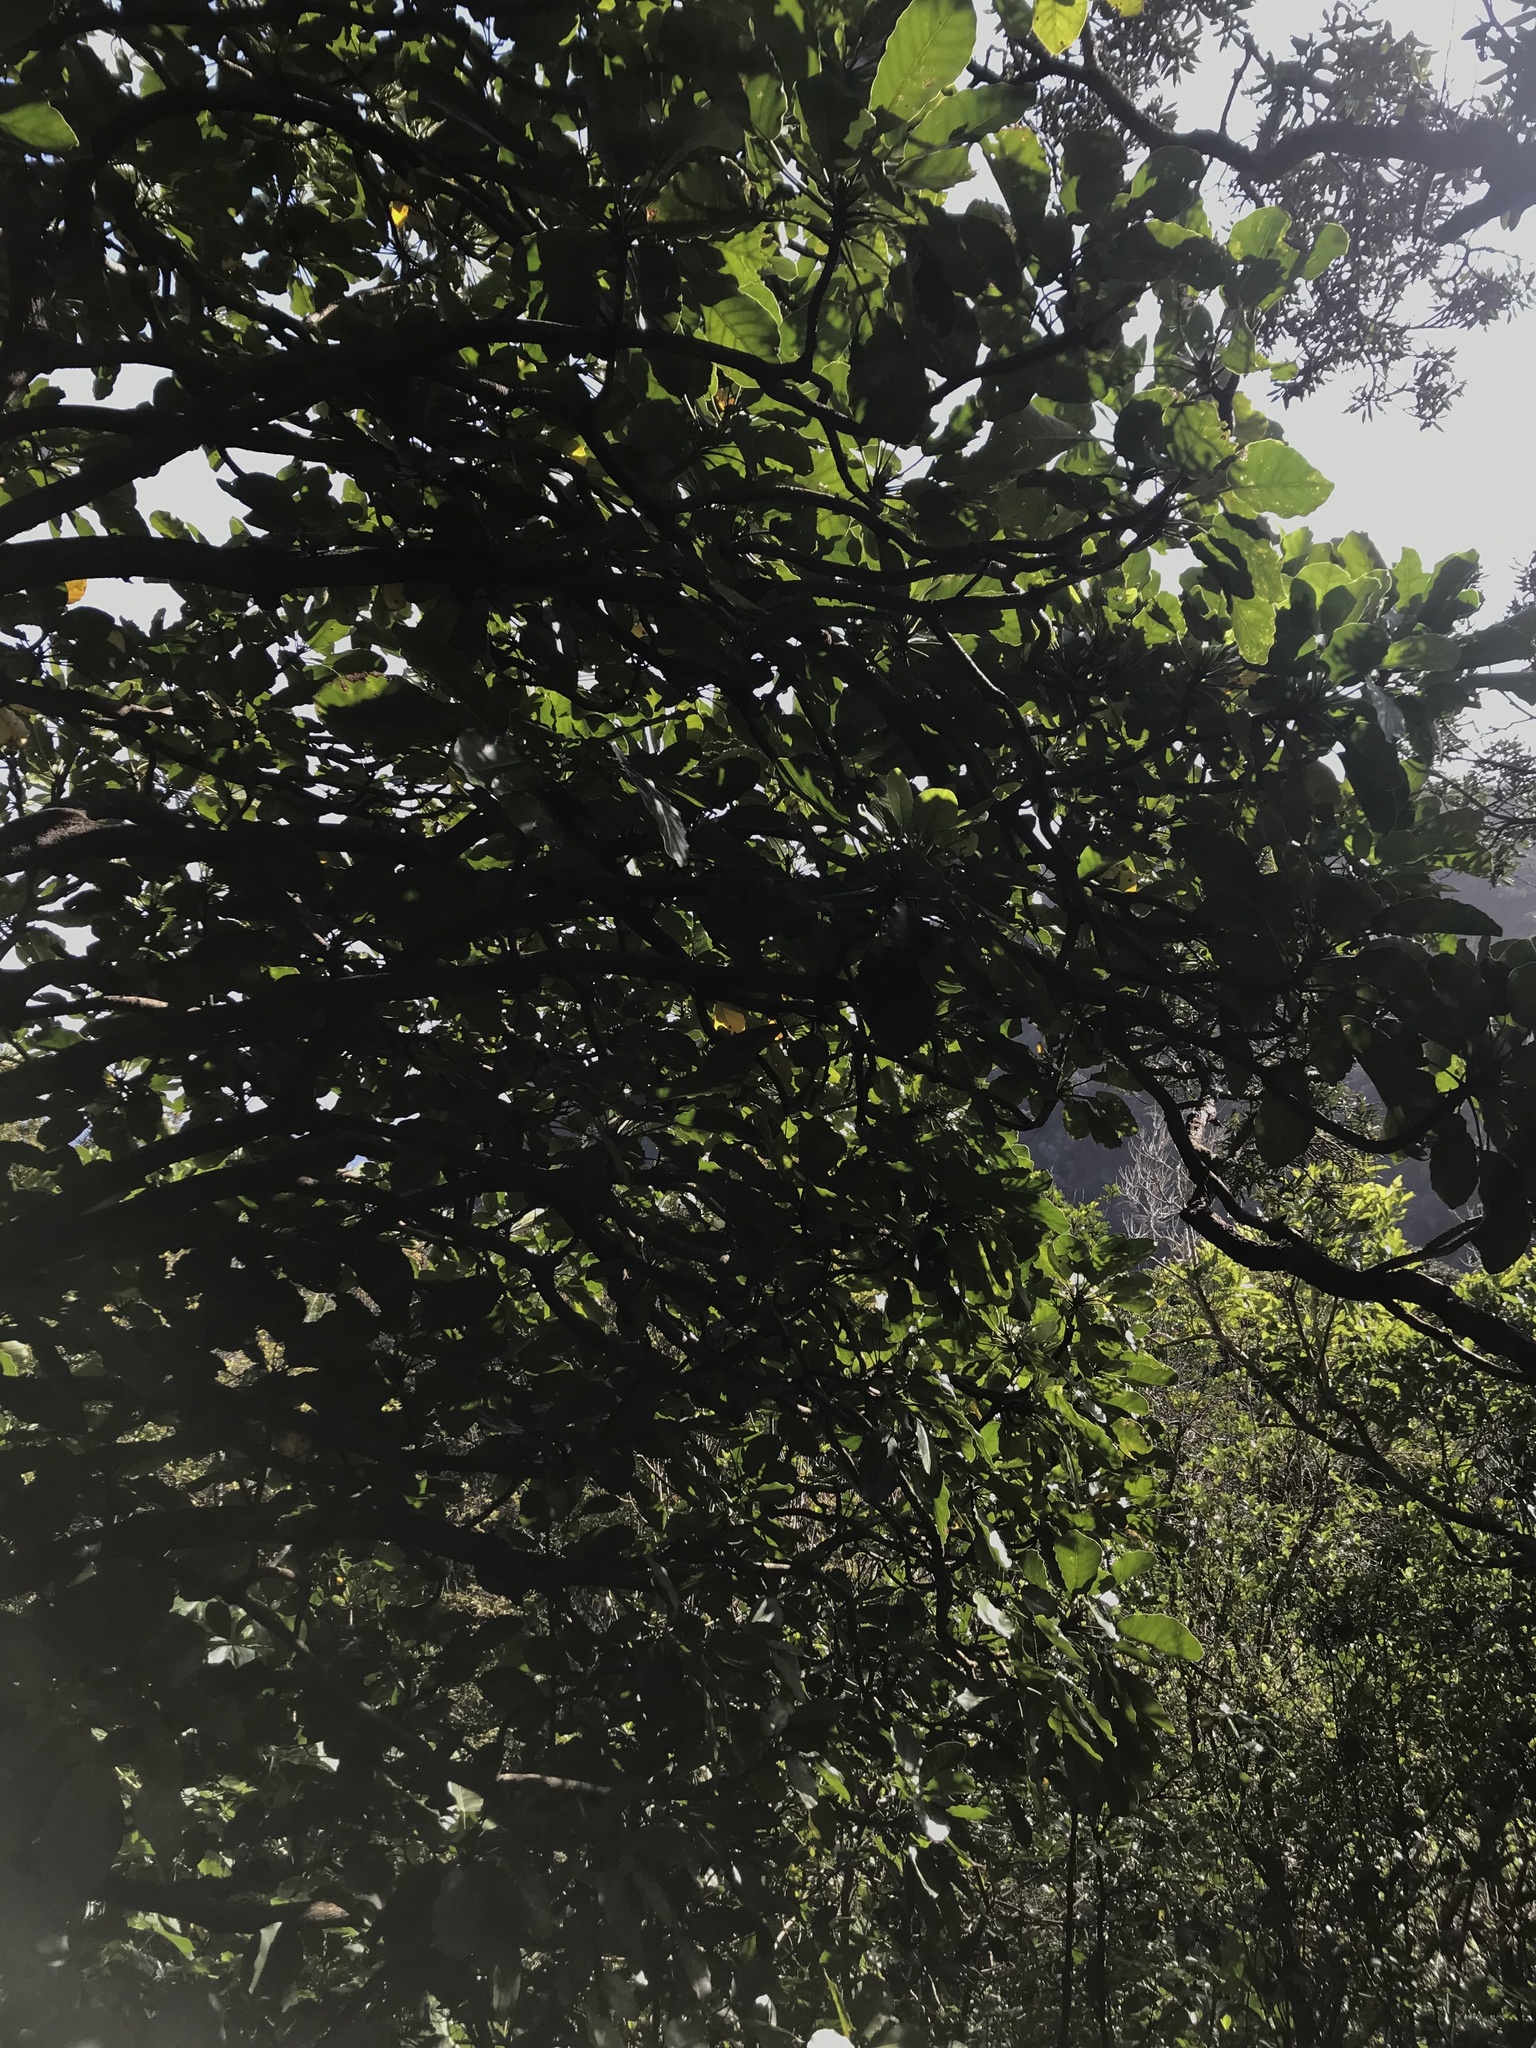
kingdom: Plantae
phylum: Tracheophyta
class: Magnoliopsida
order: Apiales
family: Araliaceae
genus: Meryta
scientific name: Meryta sinclairii
